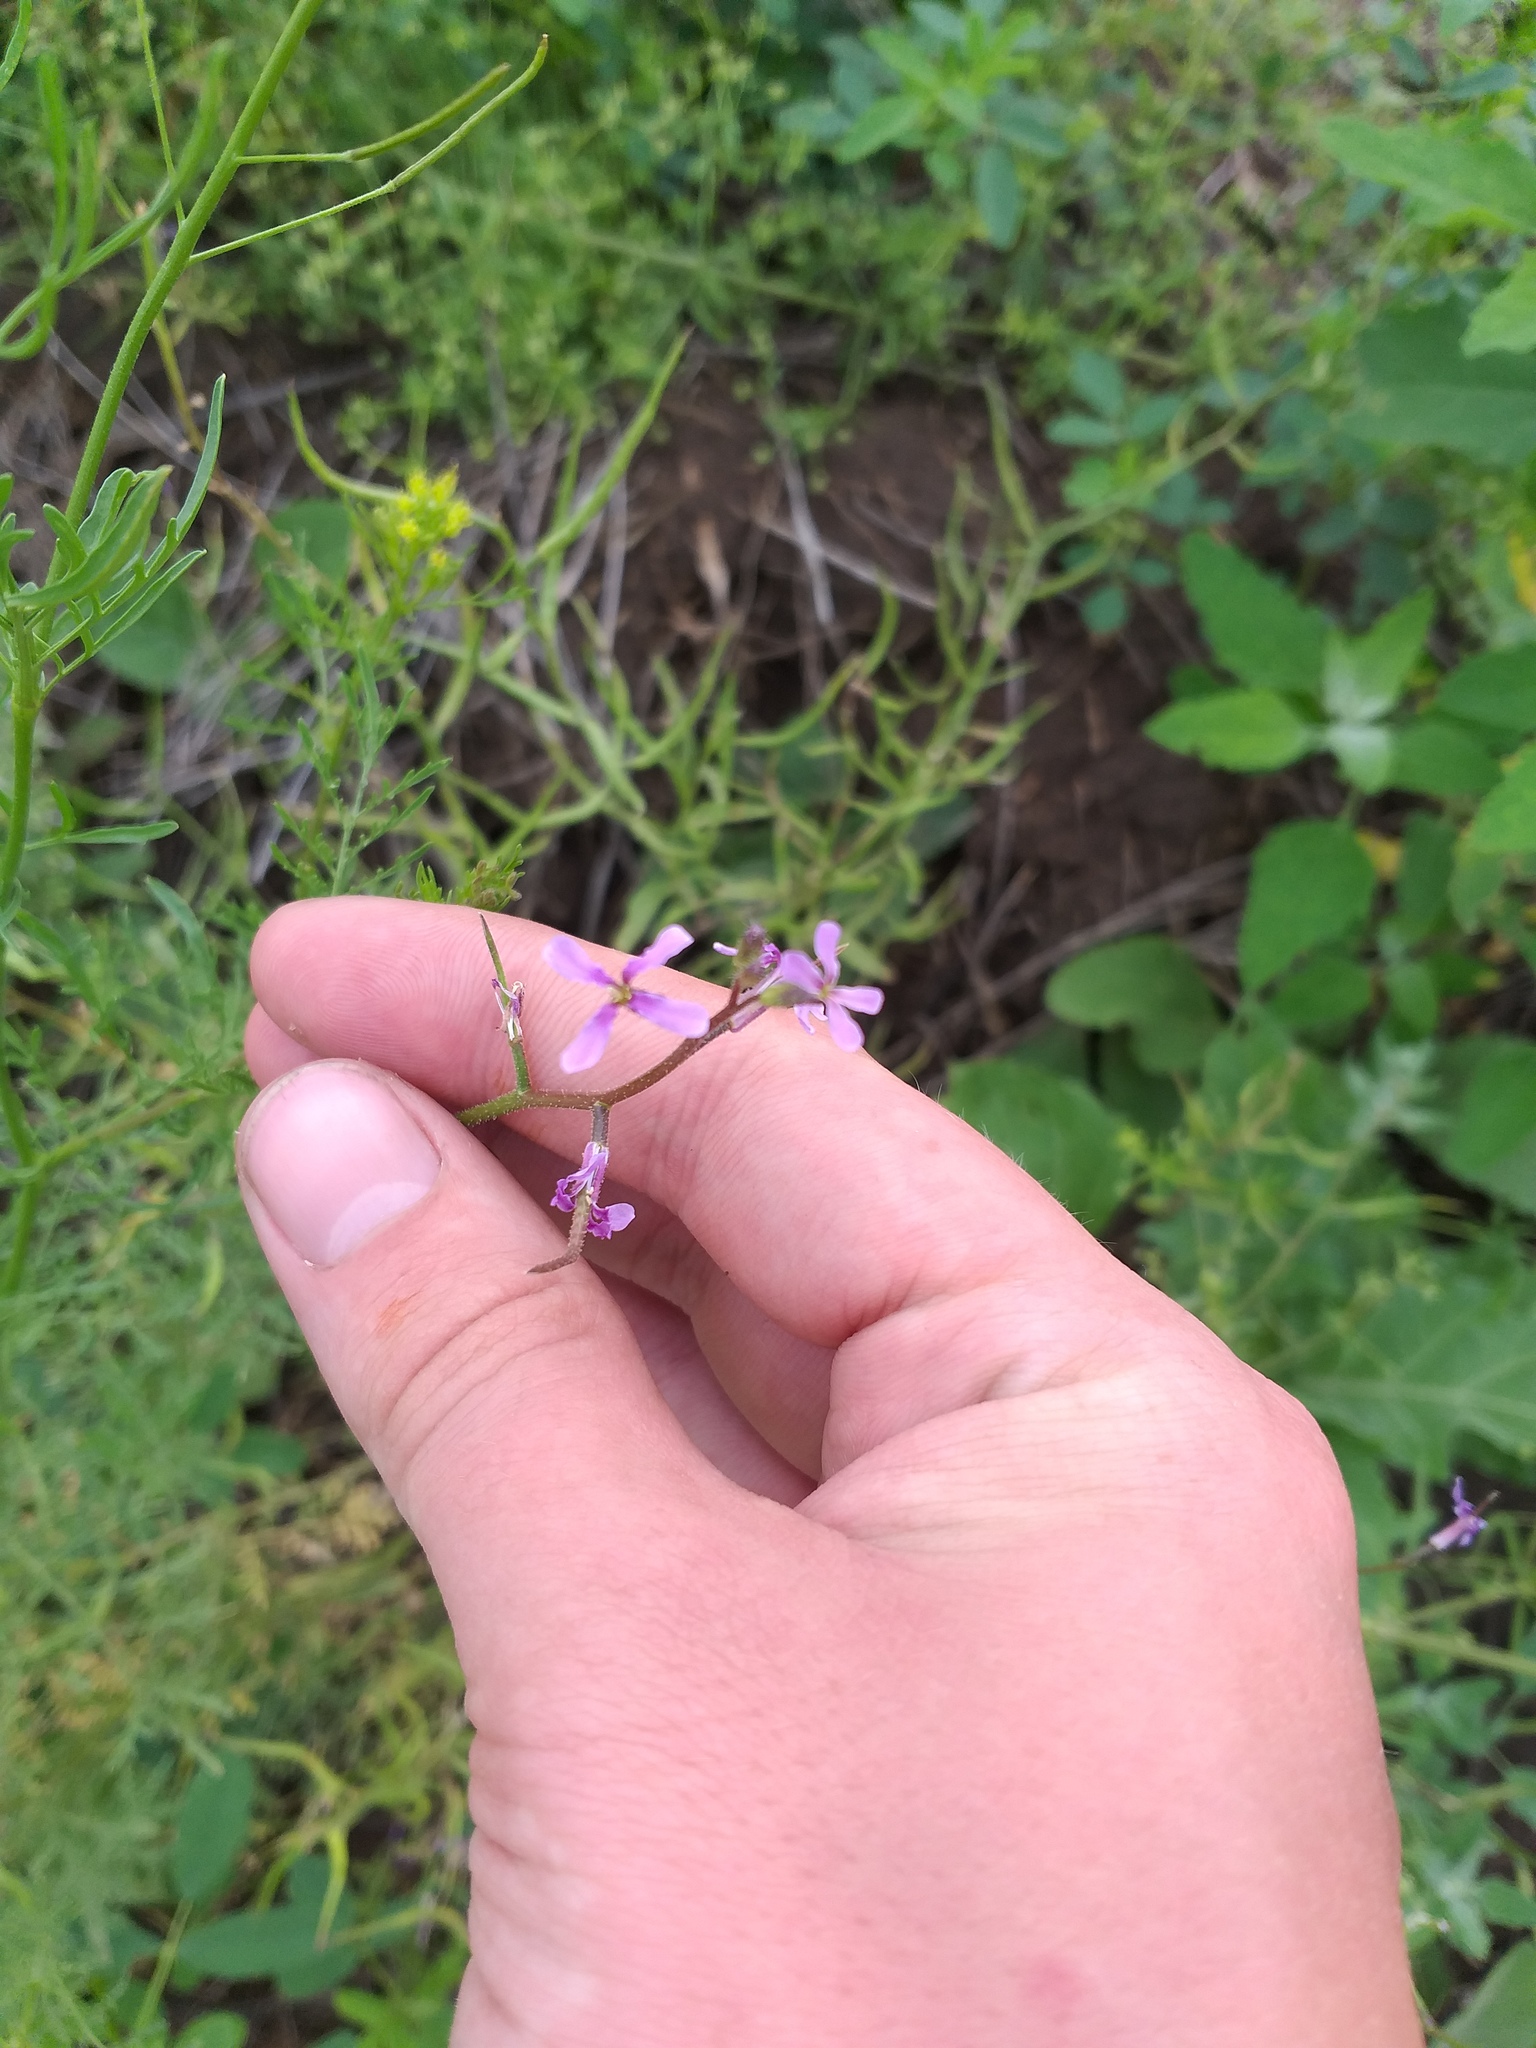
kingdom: Plantae
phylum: Tracheophyta
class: Magnoliopsida
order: Brassicales
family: Brassicaceae
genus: Chorispora
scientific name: Chorispora tenella
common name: Crossflower
